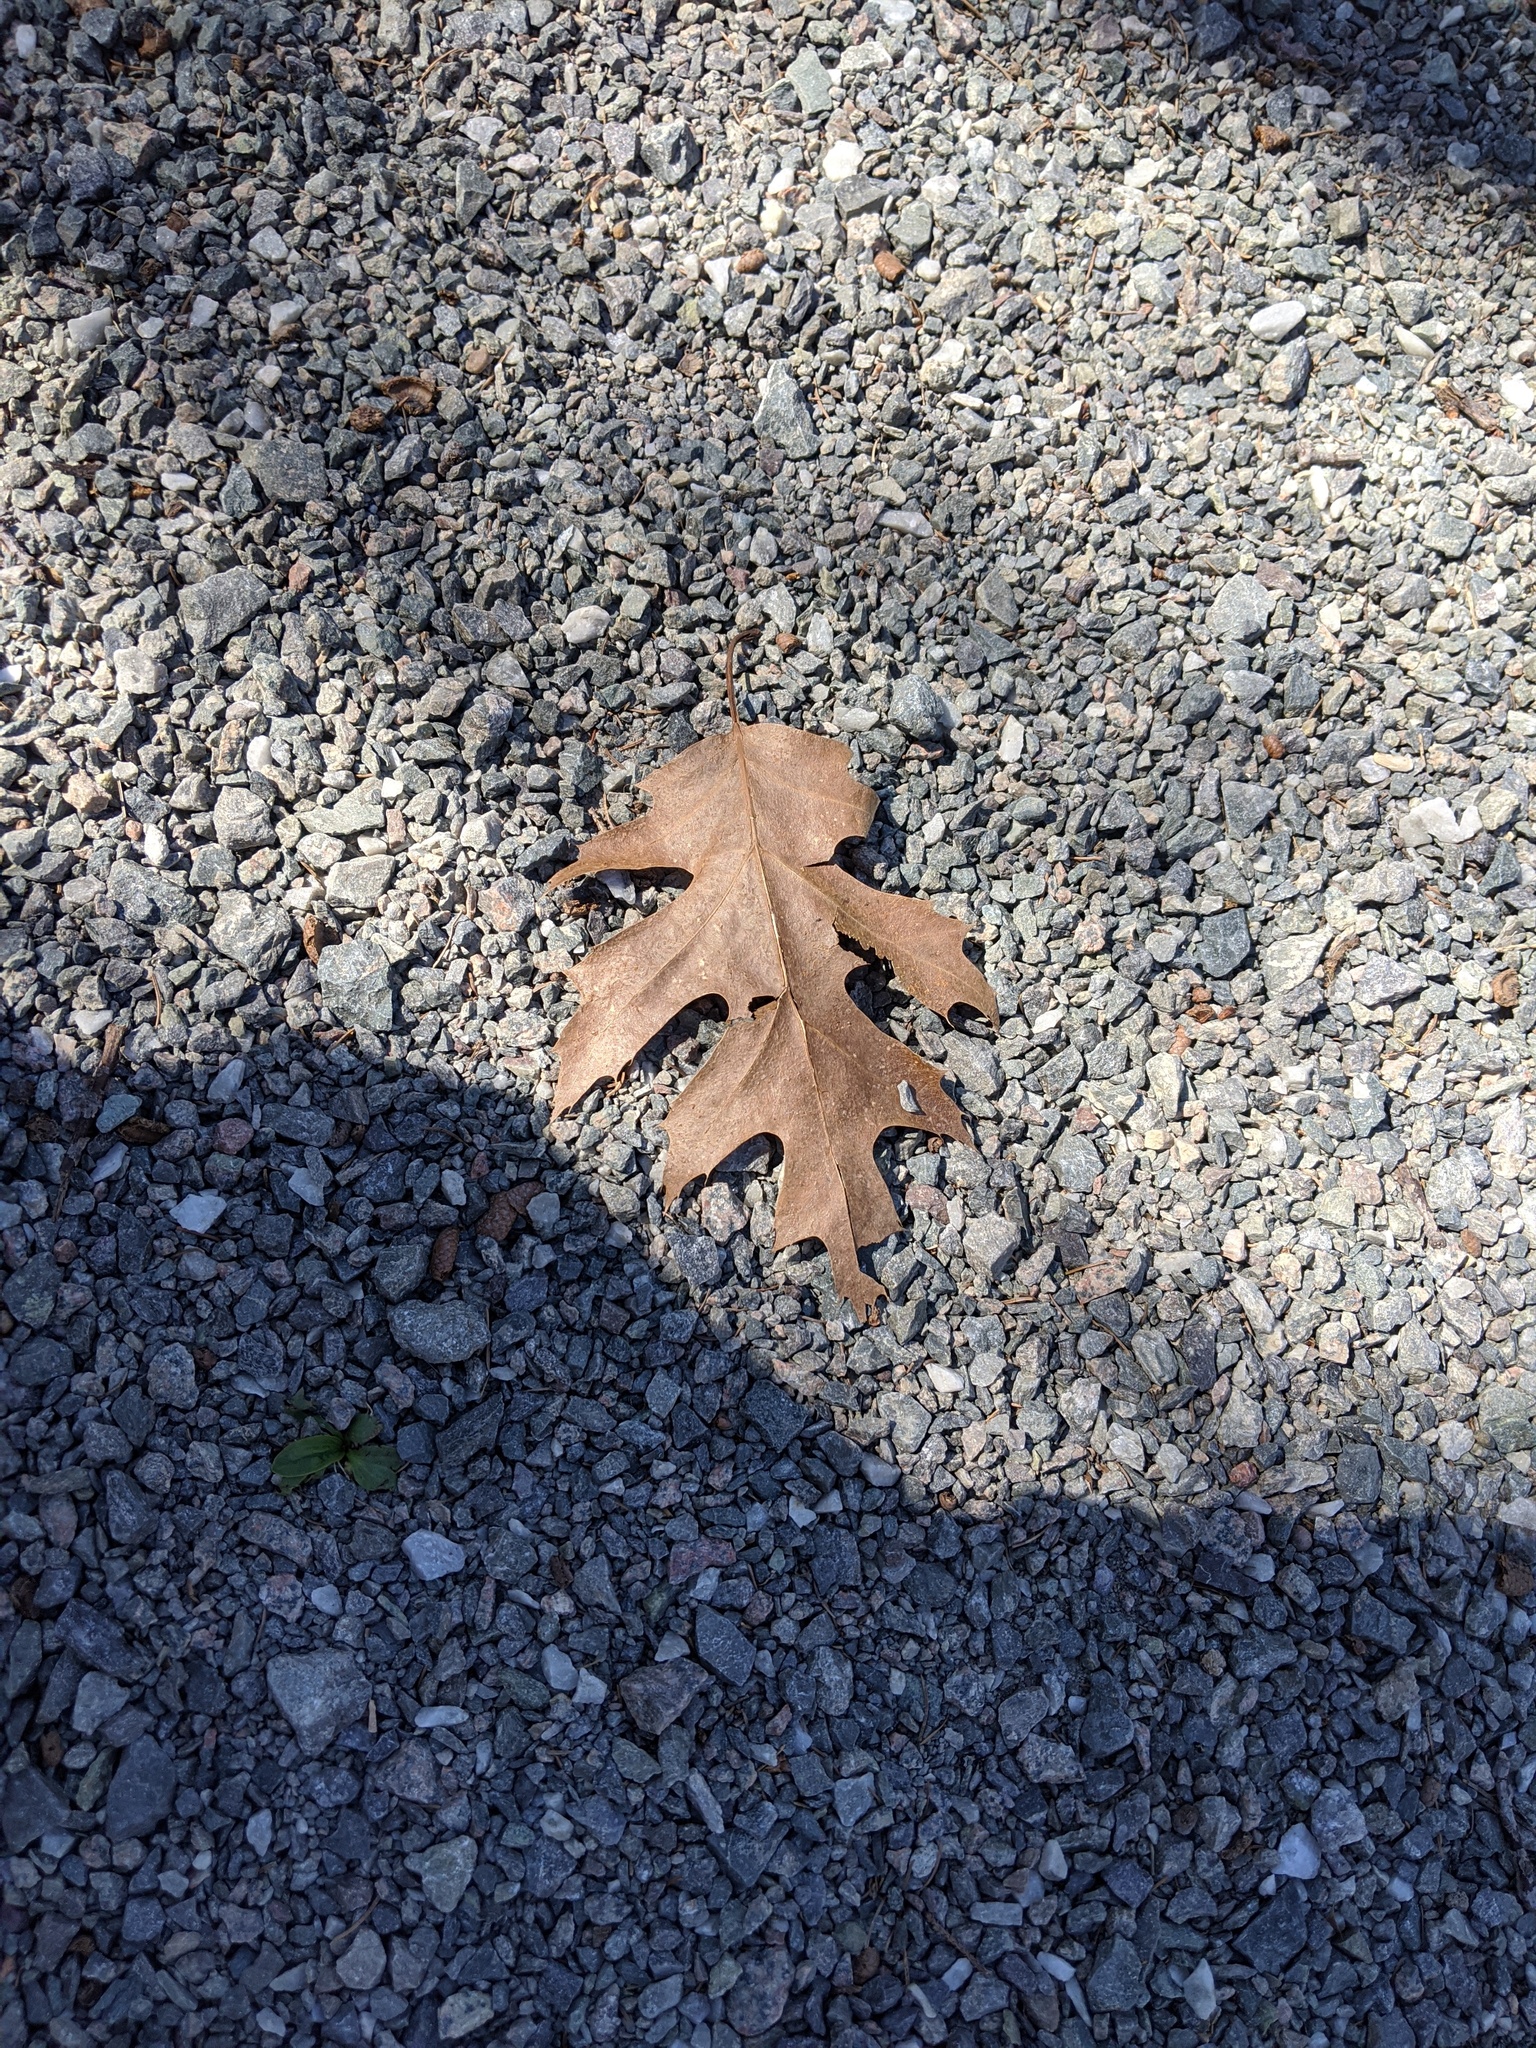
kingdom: Plantae
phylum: Tracheophyta
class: Magnoliopsida
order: Fagales
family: Fagaceae
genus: Quercus
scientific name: Quercus rubra
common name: Red oak
